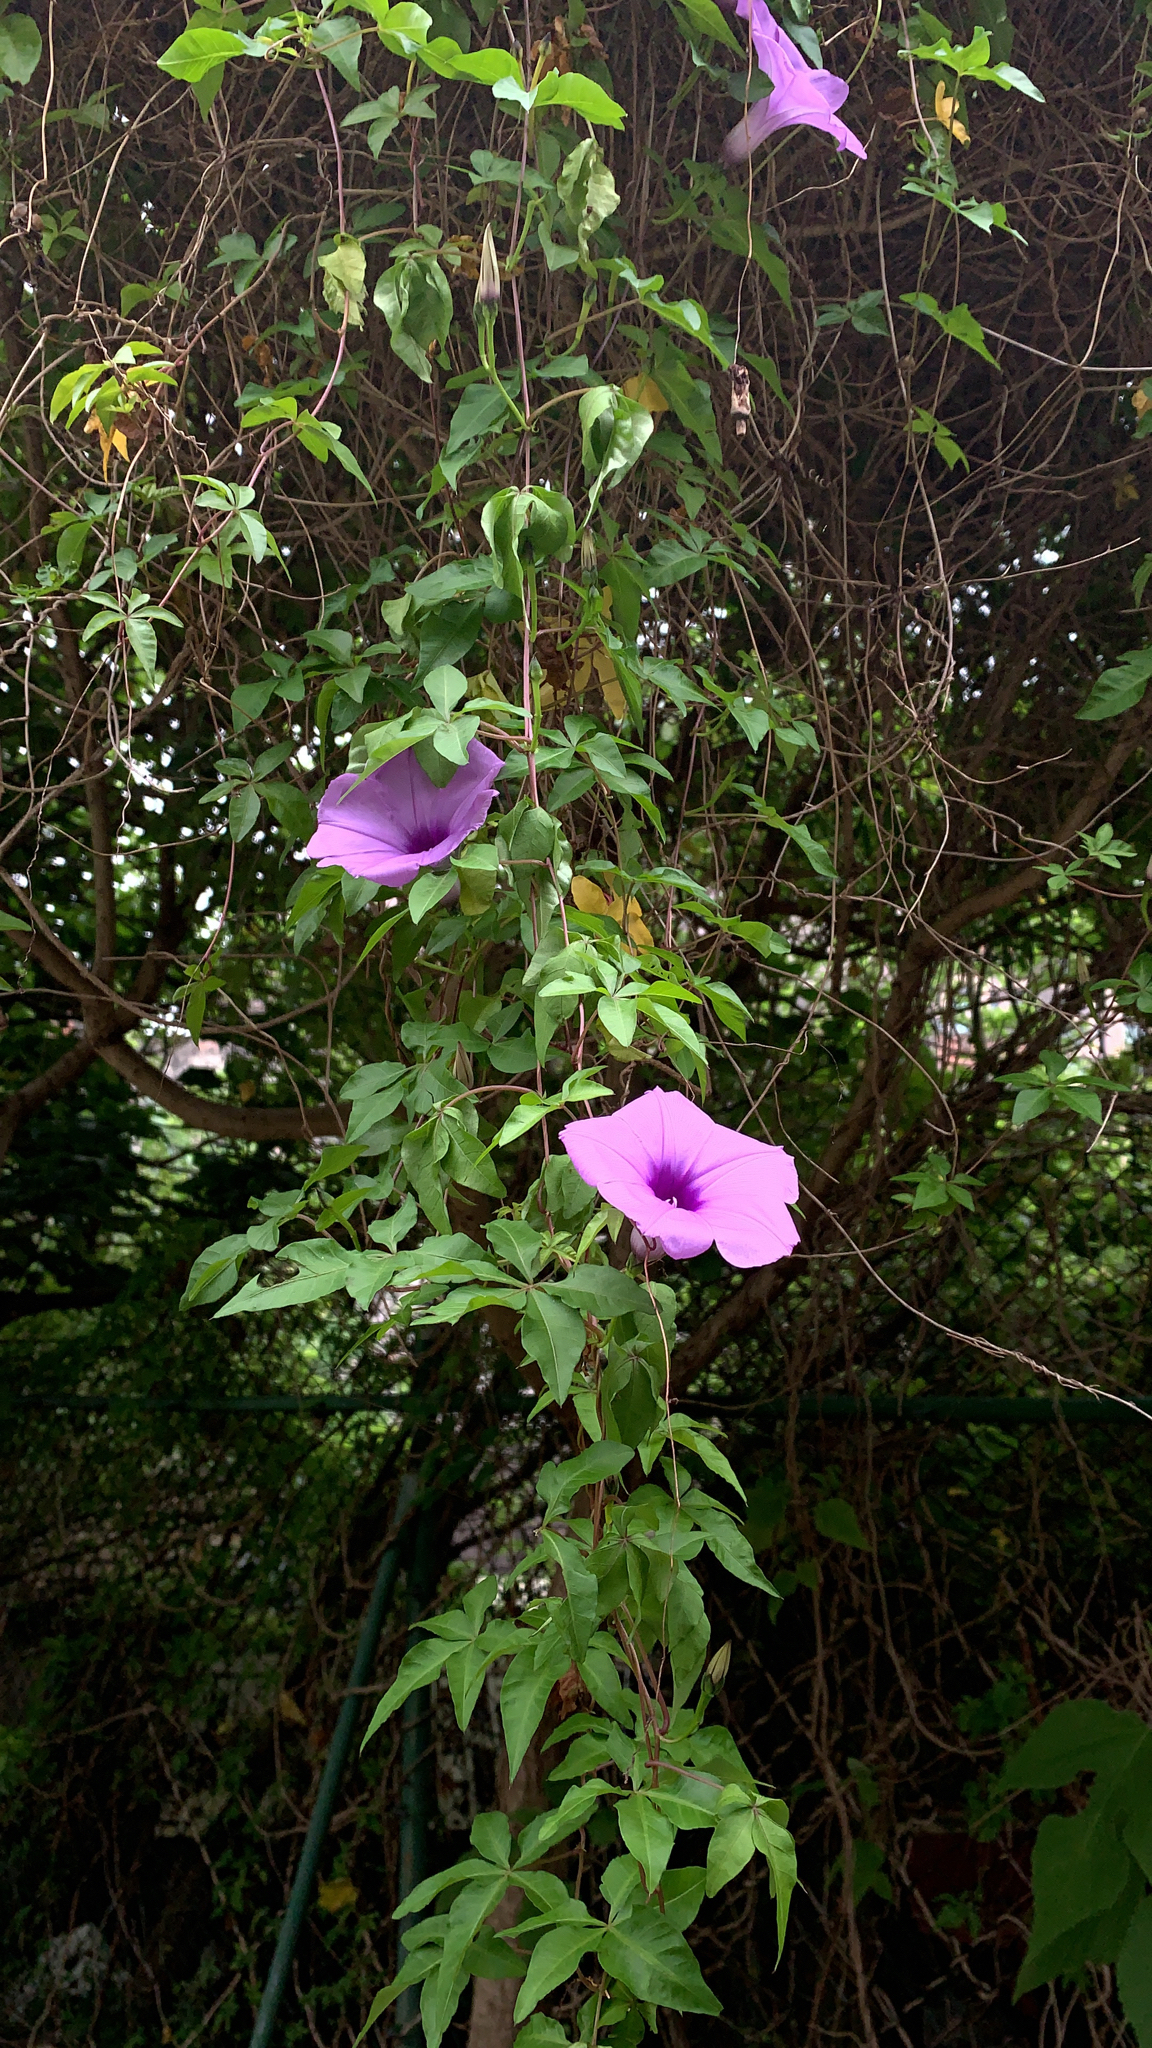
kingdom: Plantae
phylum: Tracheophyta
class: Magnoliopsida
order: Solanales
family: Convolvulaceae
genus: Ipomoea
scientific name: Ipomoea cairica
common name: Mile a minute vine
